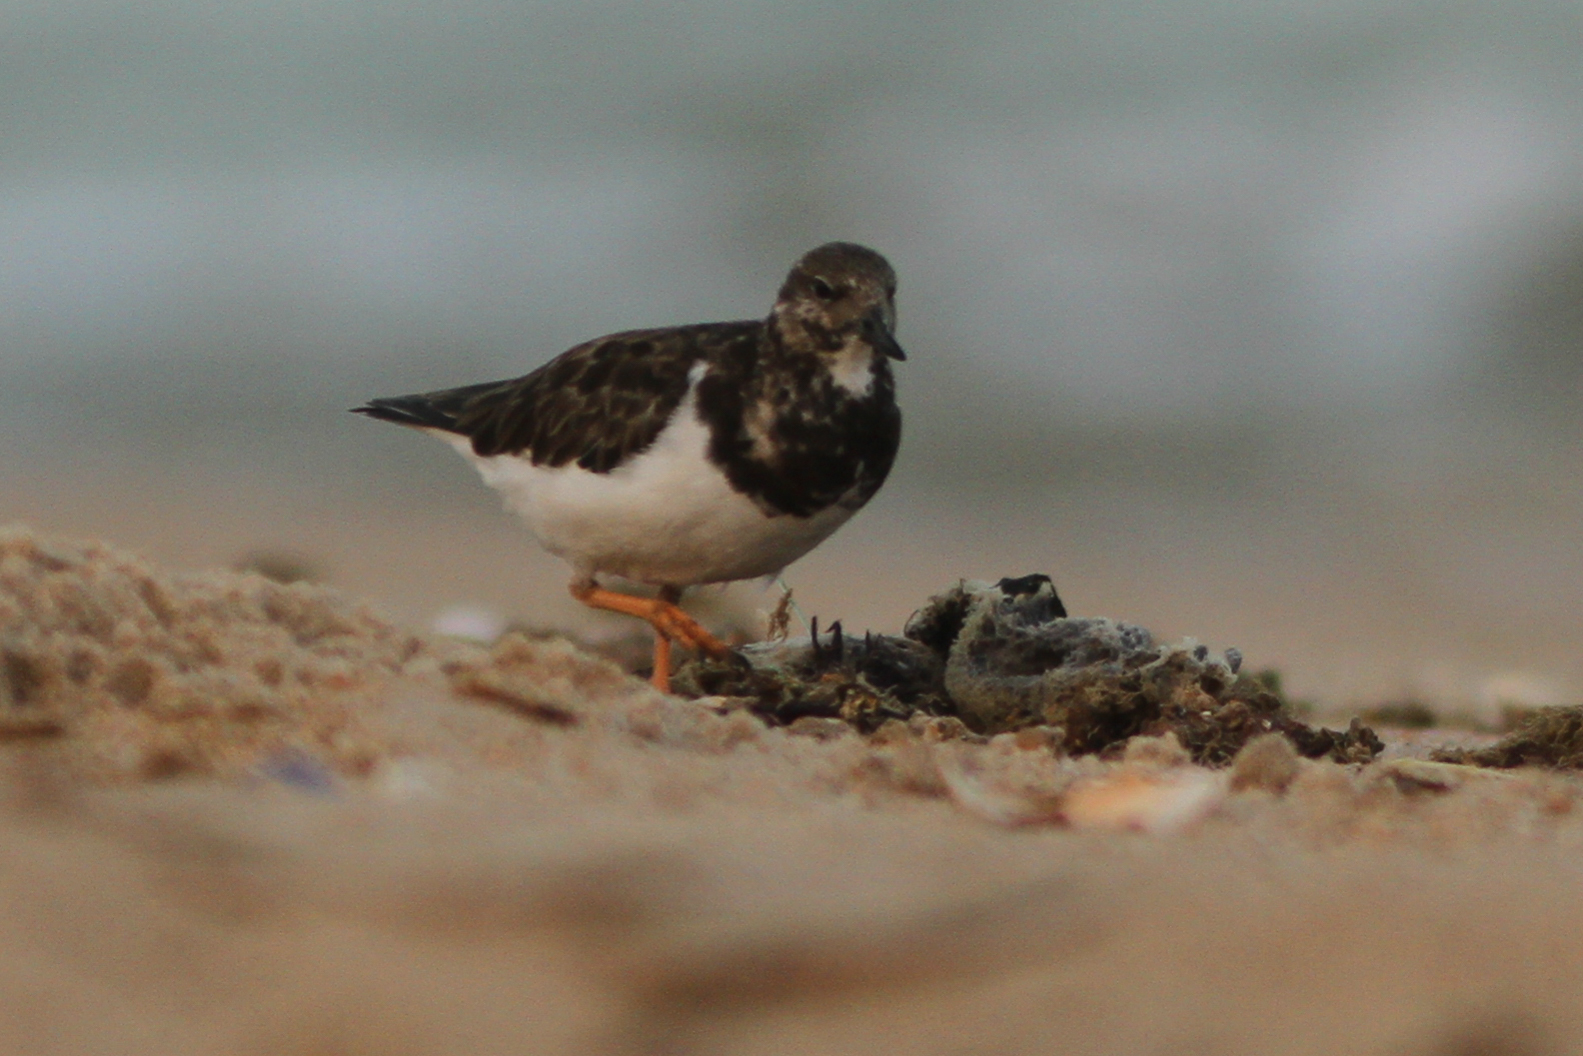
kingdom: Animalia
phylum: Chordata
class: Aves
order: Charadriiformes
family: Scolopacidae
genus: Arenaria
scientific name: Arenaria interpres
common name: Ruddy turnstone
